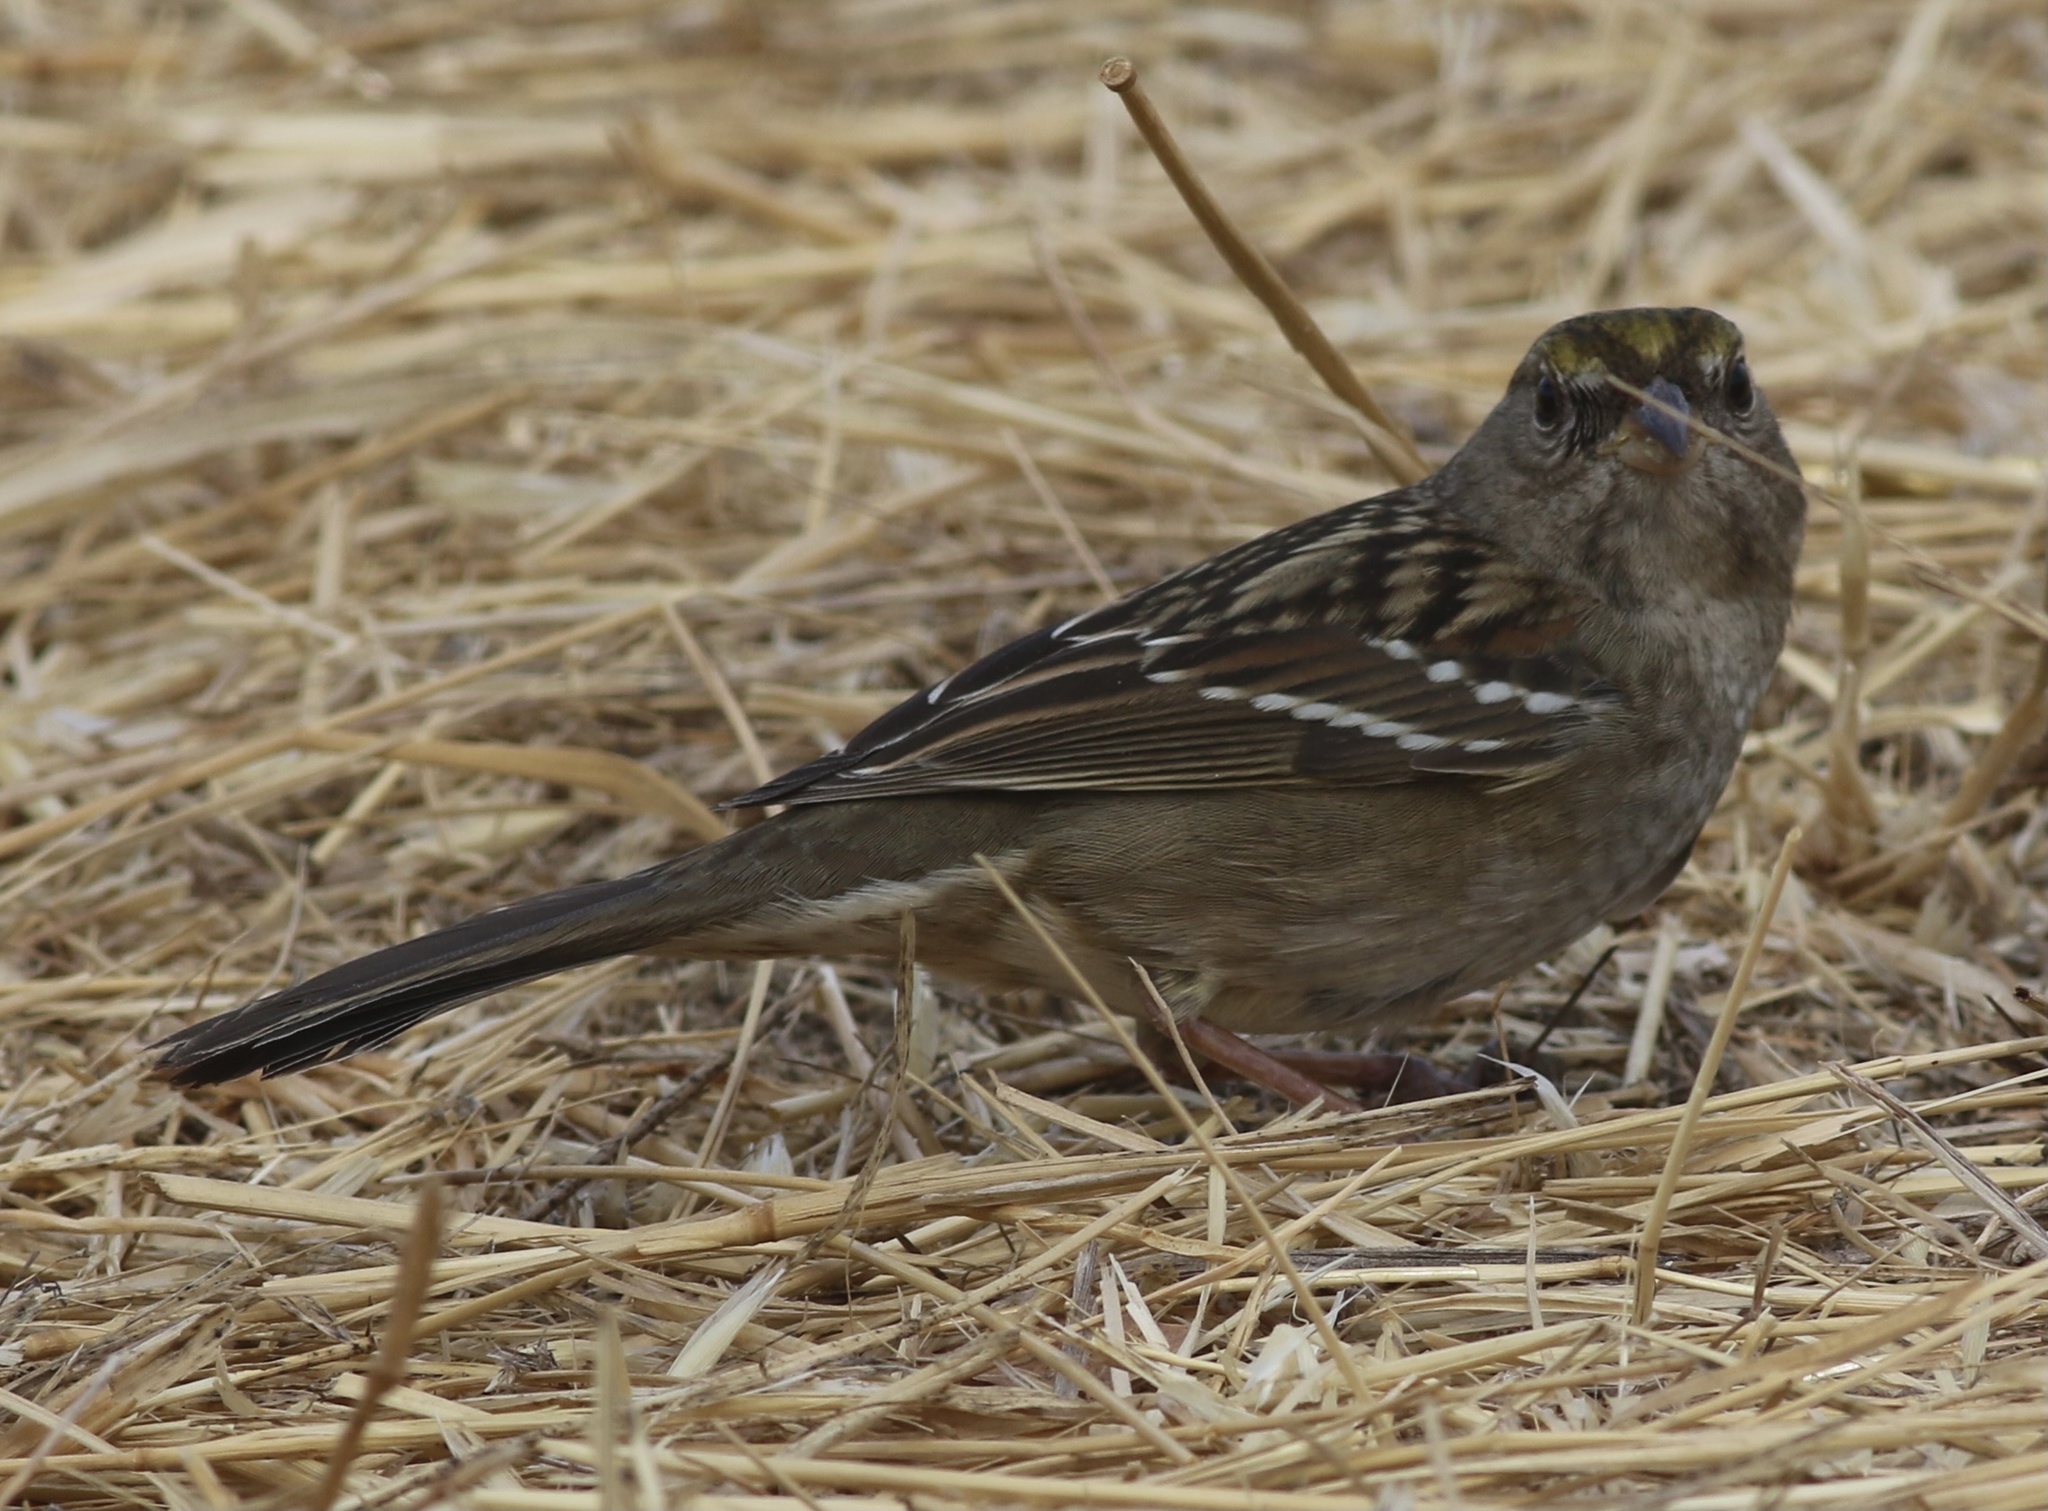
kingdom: Animalia
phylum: Chordata
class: Aves
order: Passeriformes
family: Passerellidae
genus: Zonotrichia
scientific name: Zonotrichia atricapilla
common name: Golden-crowned sparrow
